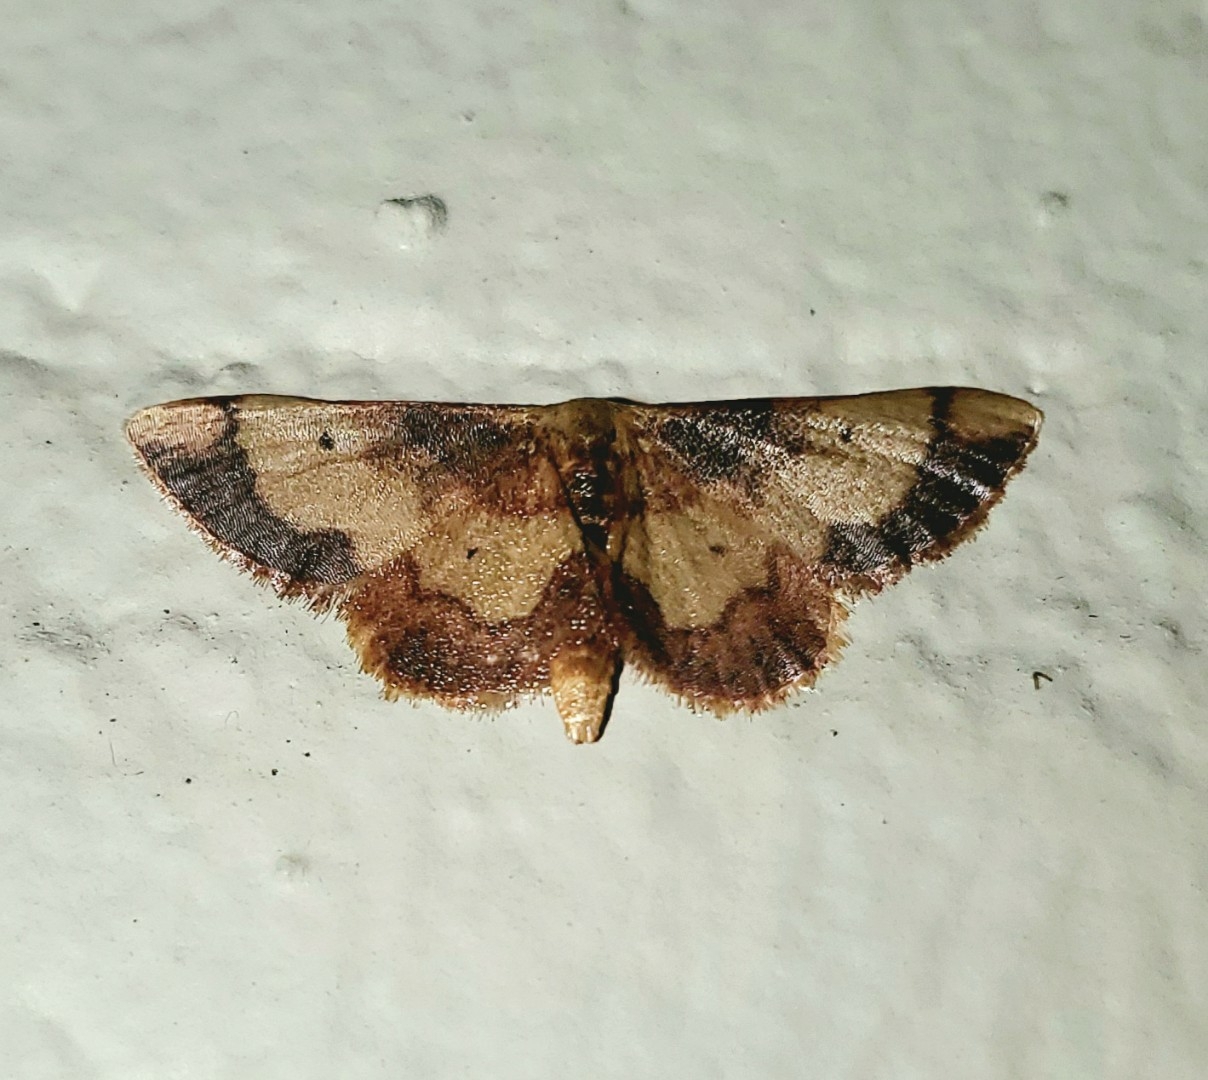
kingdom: Animalia
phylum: Arthropoda
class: Insecta
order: Lepidoptera
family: Geometridae
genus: Idaea
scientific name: Idaea demissaria
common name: Red-bordered wave
